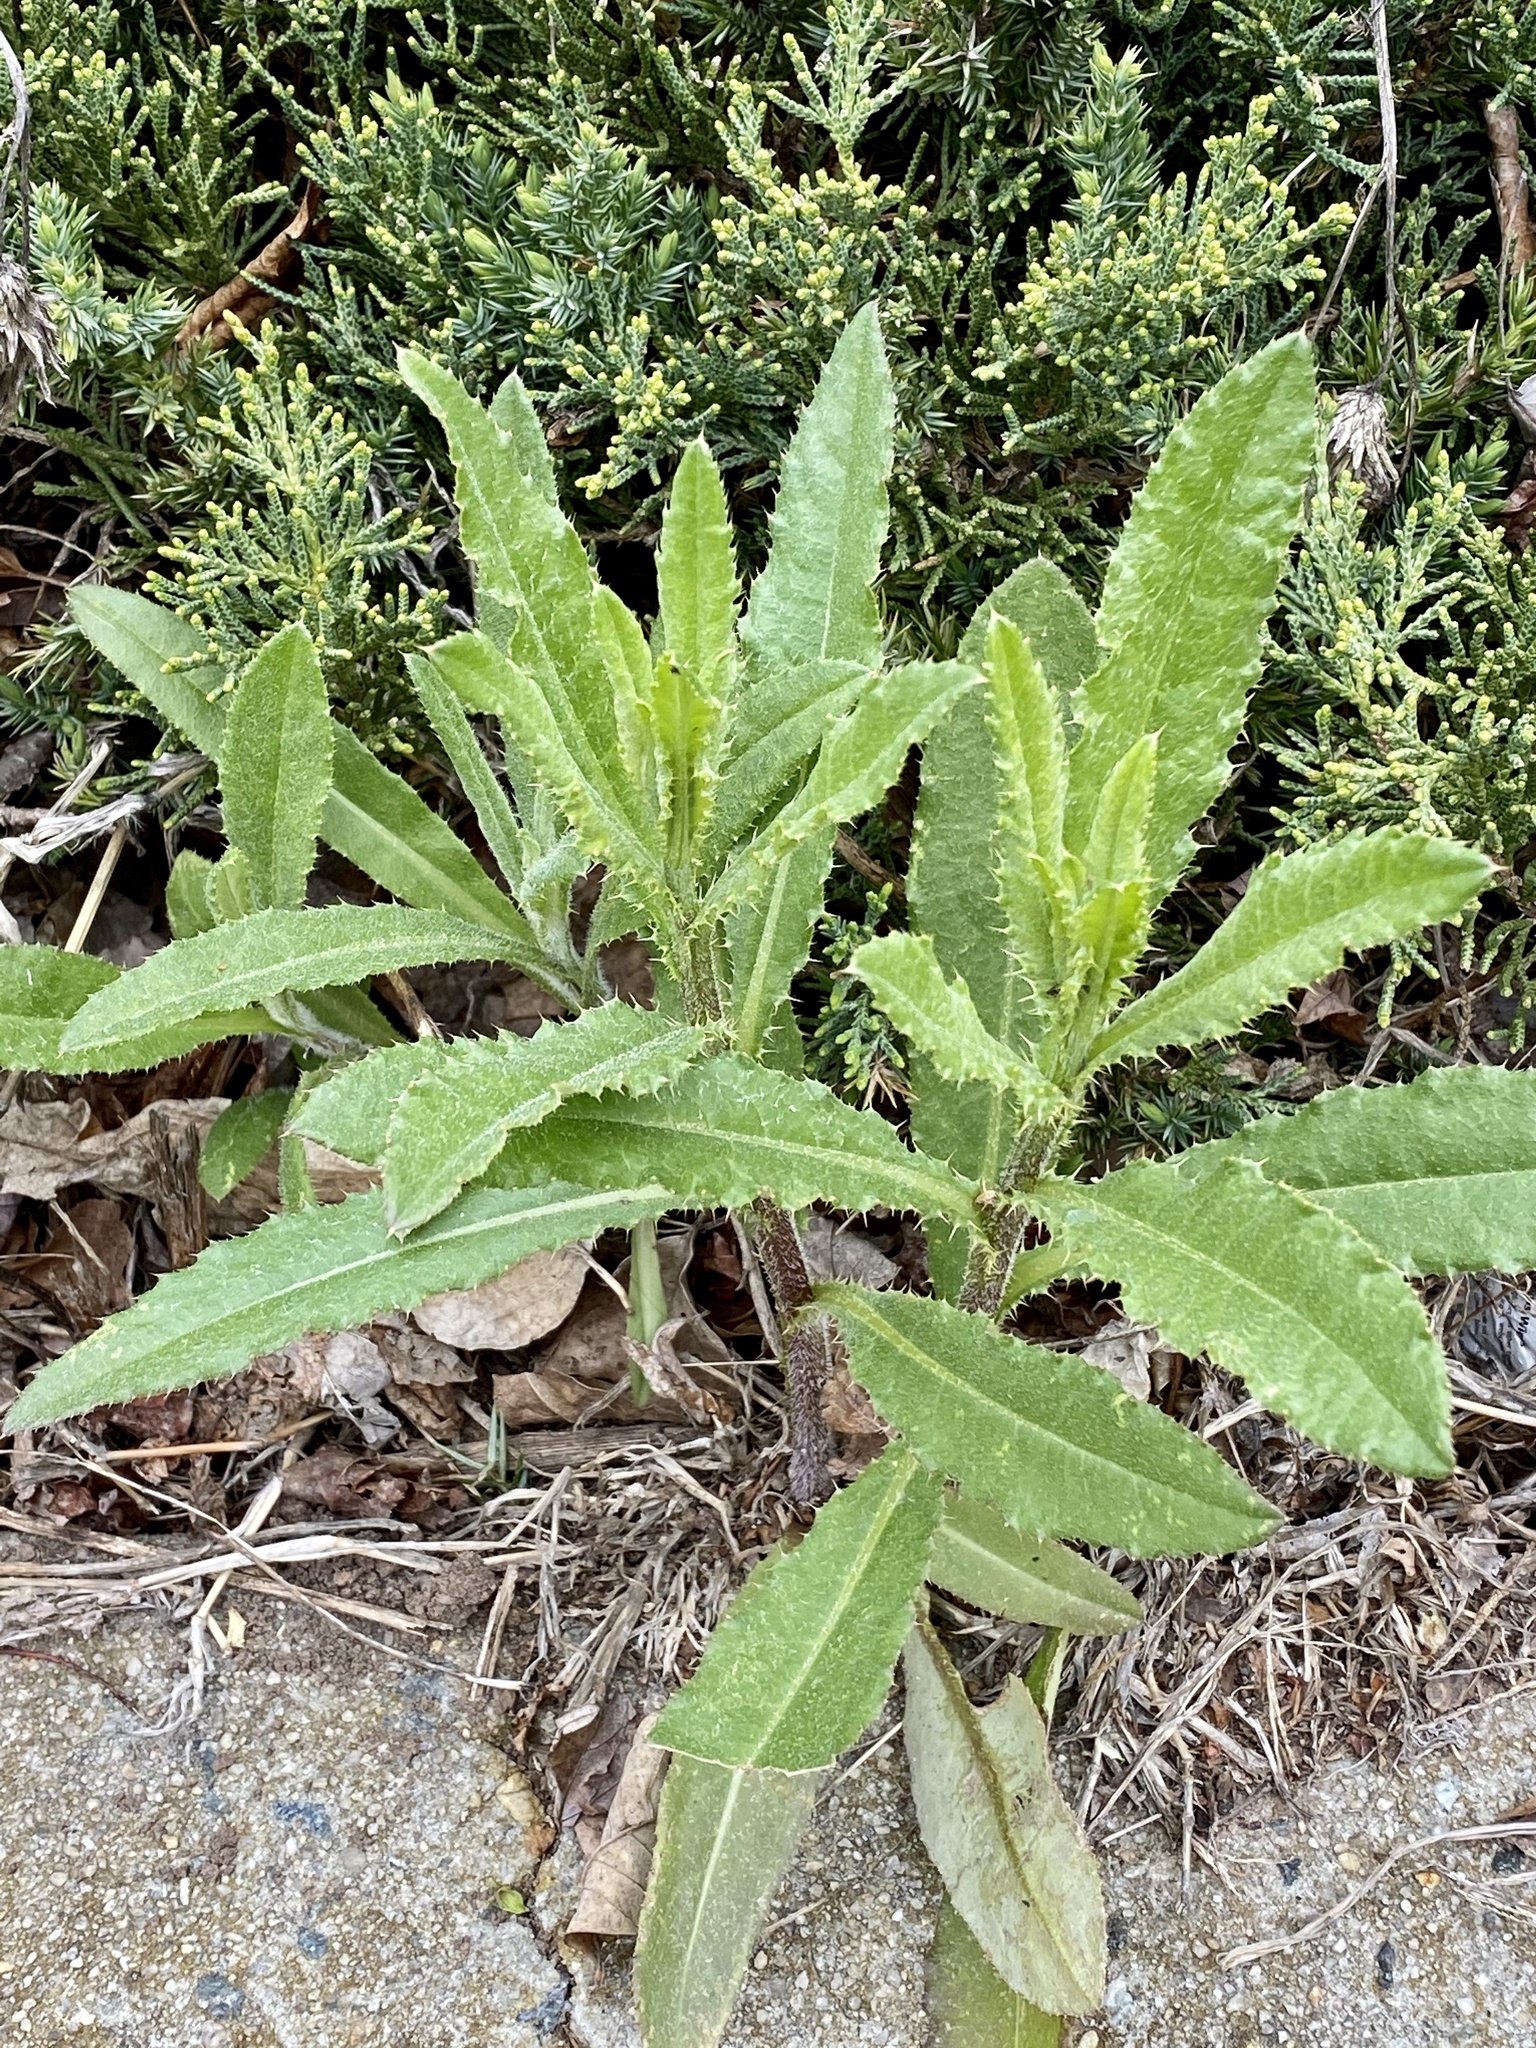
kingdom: Plantae
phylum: Tracheophyta
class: Magnoliopsida
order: Asterales
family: Asteraceae
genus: Cirsium
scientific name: Cirsium arvense
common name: Creeping thistle
